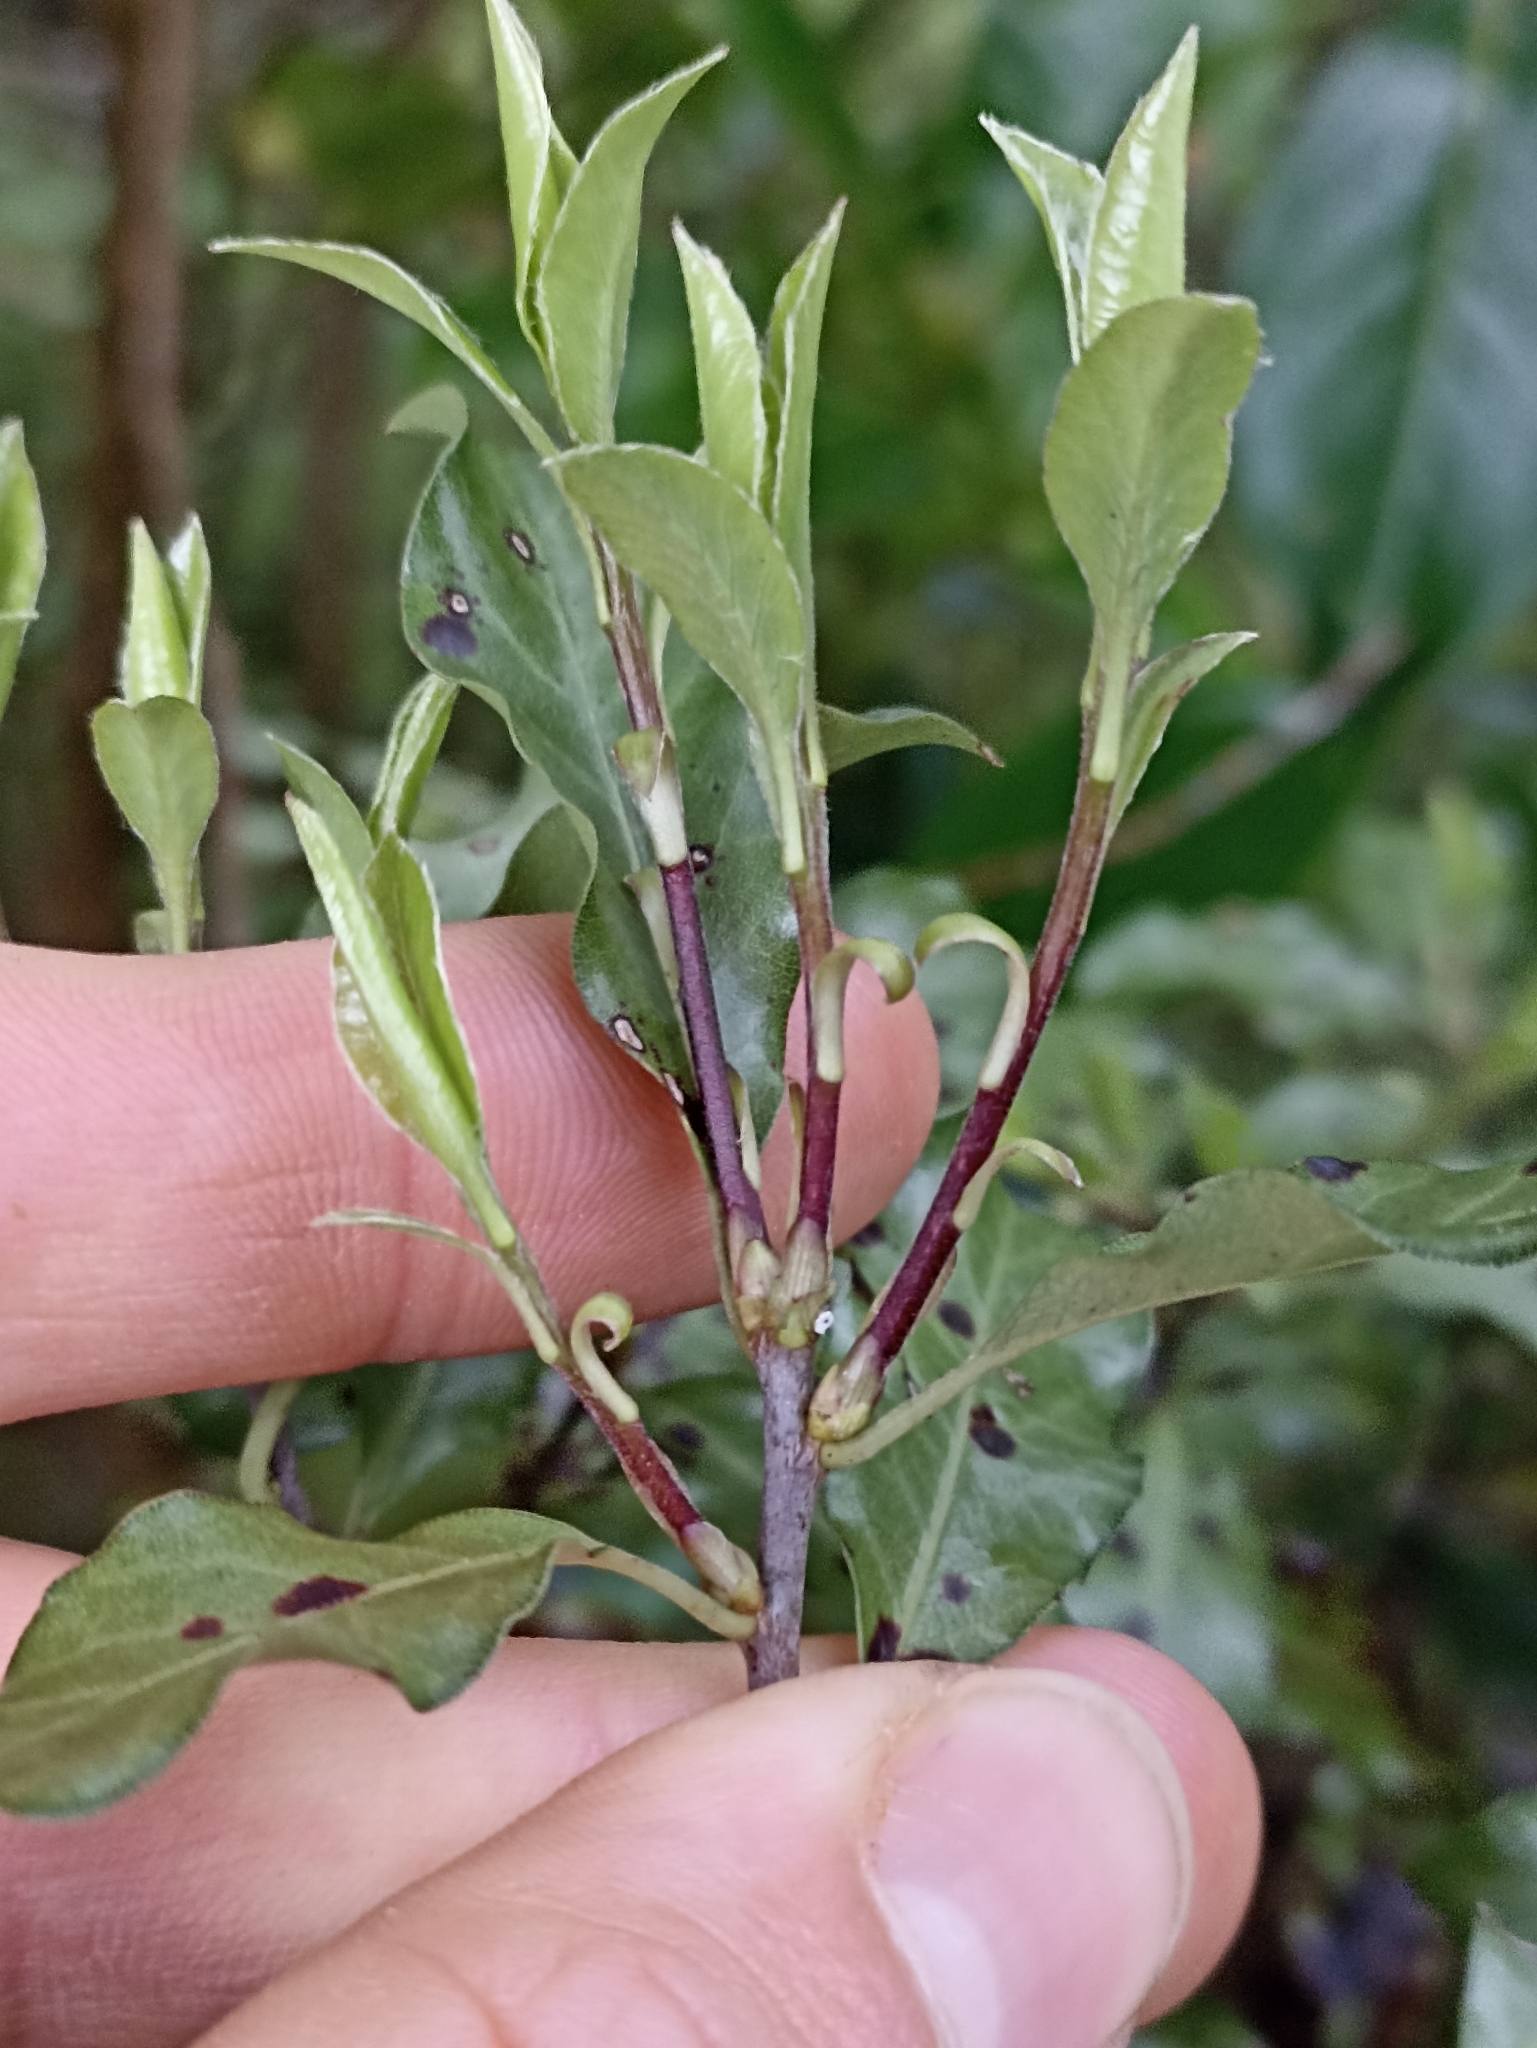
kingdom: Plantae
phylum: Tracheophyta
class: Magnoliopsida
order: Apiales
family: Pittosporaceae
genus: Pittosporum
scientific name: Pittosporum tenuifolium
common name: Kohuhu
